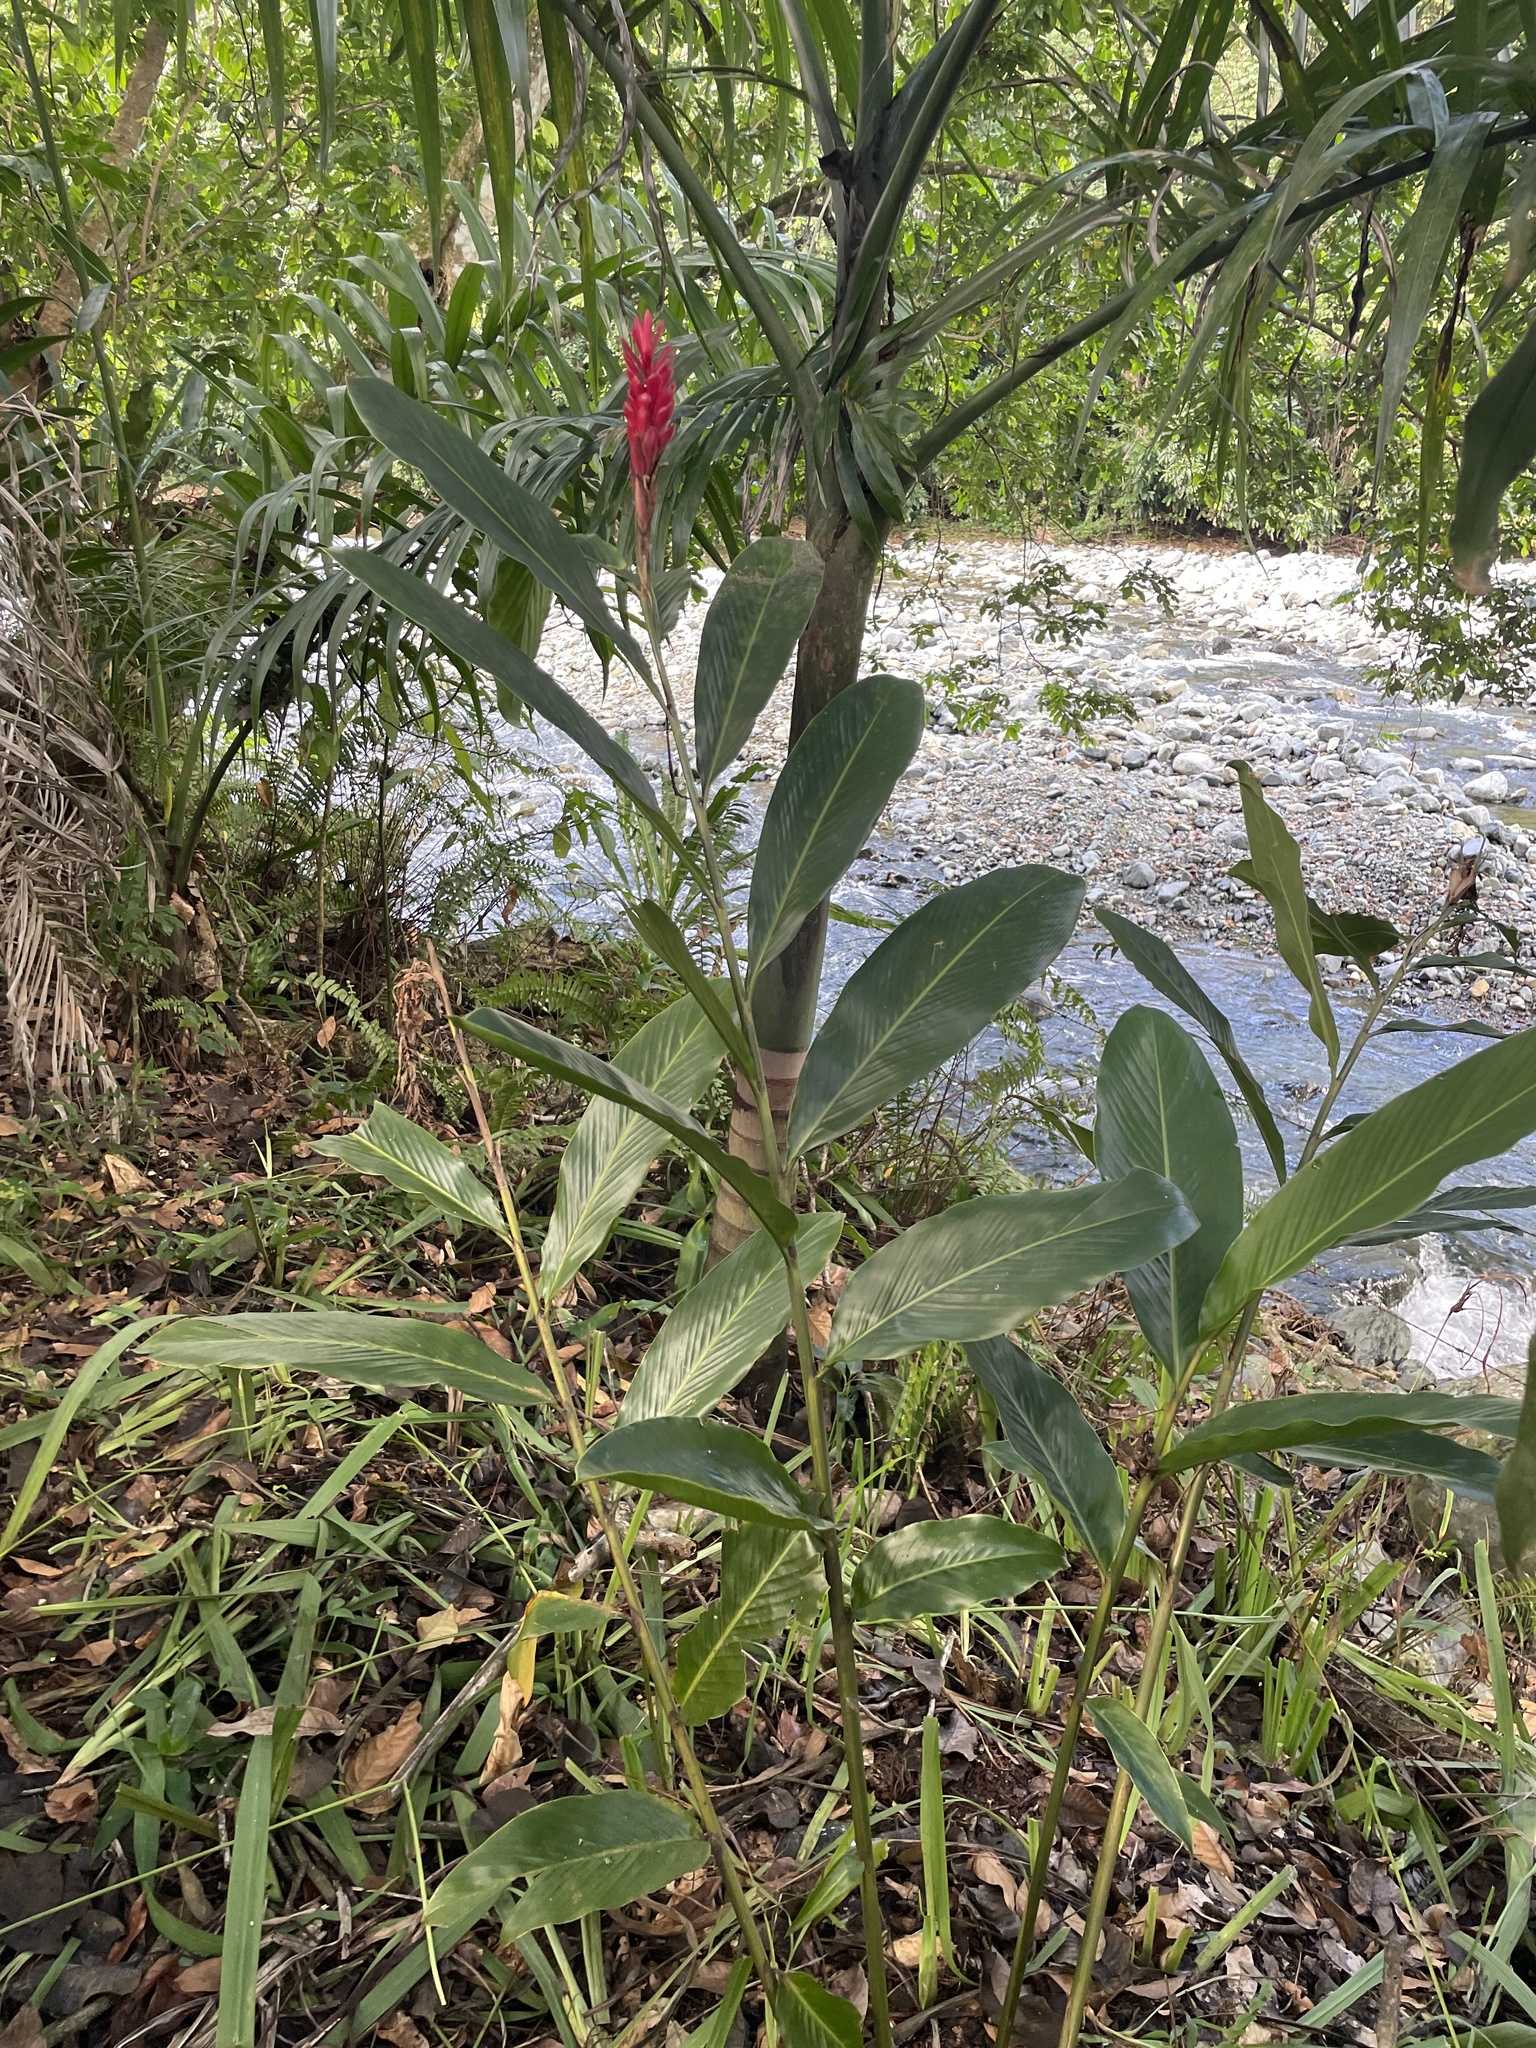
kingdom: Plantae
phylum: Tracheophyta
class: Liliopsida
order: Zingiberales
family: Zingiberaceae
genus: Alpinia
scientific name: Alpinia purpurata
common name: Red ginger
